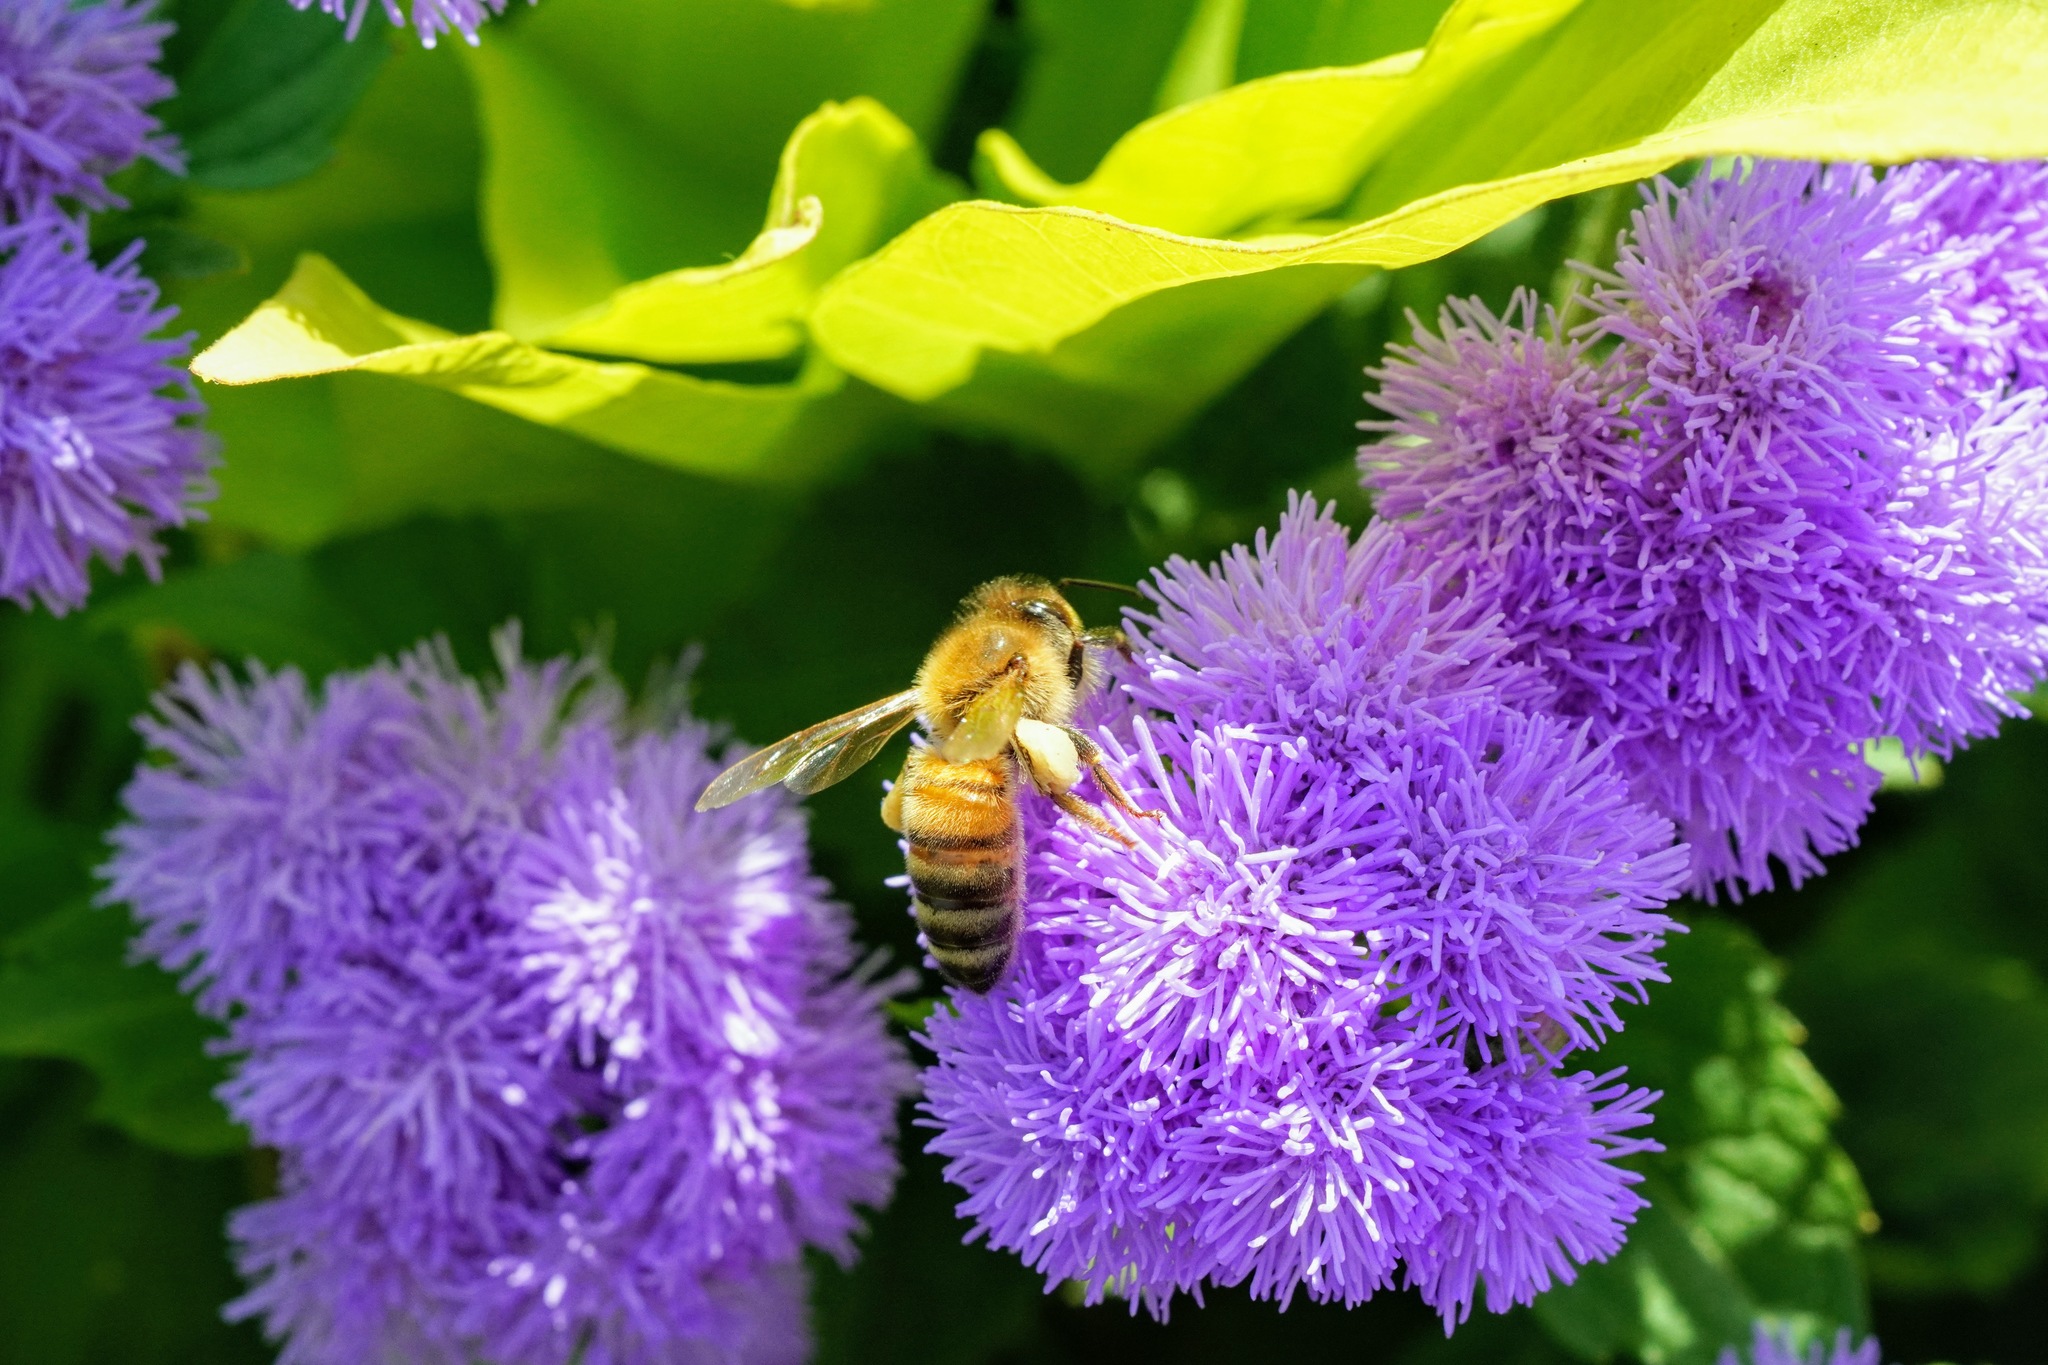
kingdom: Animalia
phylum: Arthropoda
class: Insecta
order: Hymenoptera
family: Apidae
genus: Apis
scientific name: Apis mellifera
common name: Honey bee
